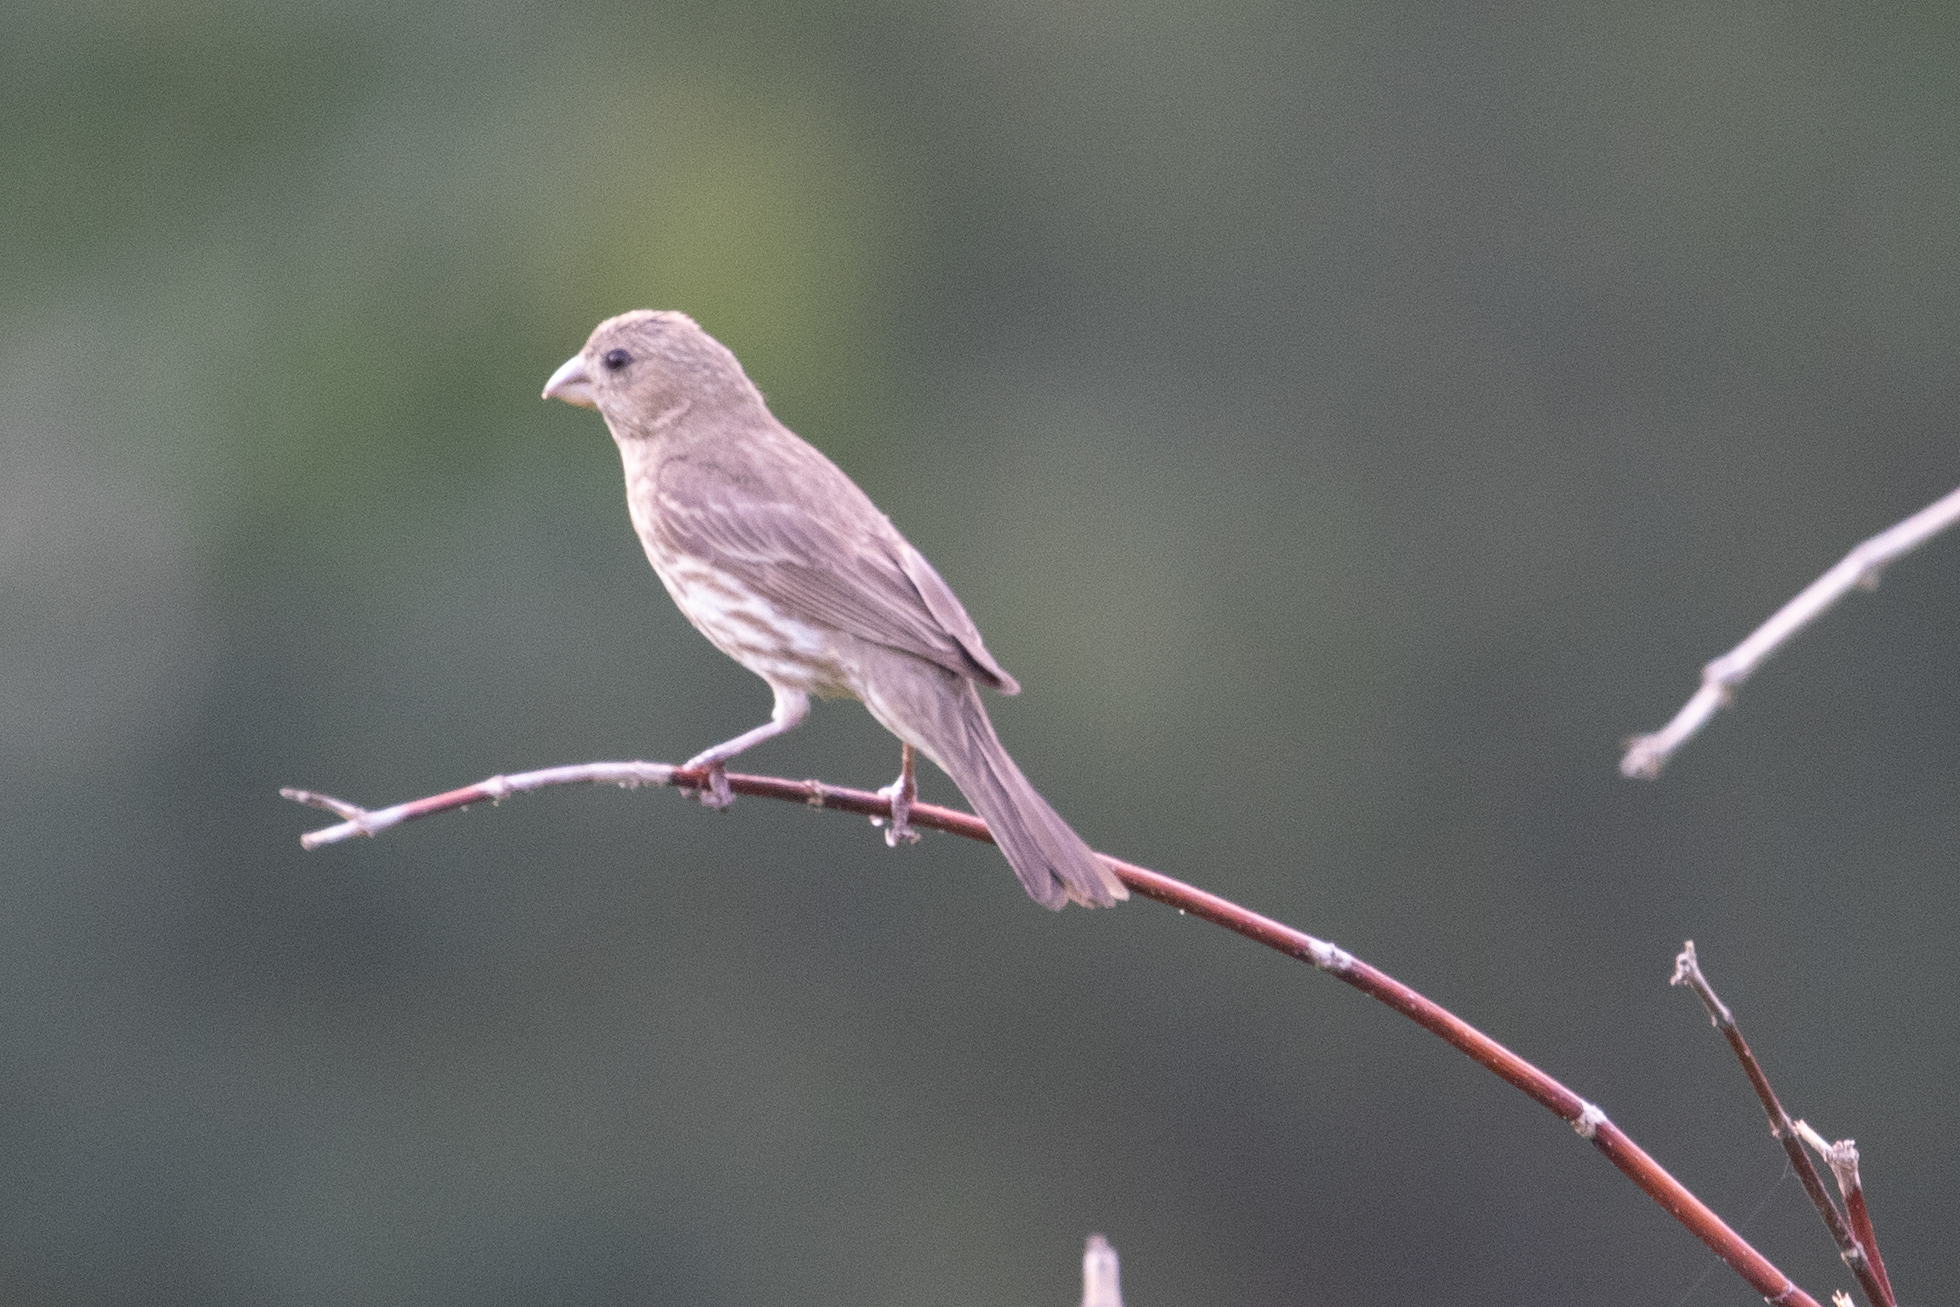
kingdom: Animalia
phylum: Chordata
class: Aves
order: Passeriformes
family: Fringillidae
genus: Haemorhous
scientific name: Haemorhous mexicanus
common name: House finch
